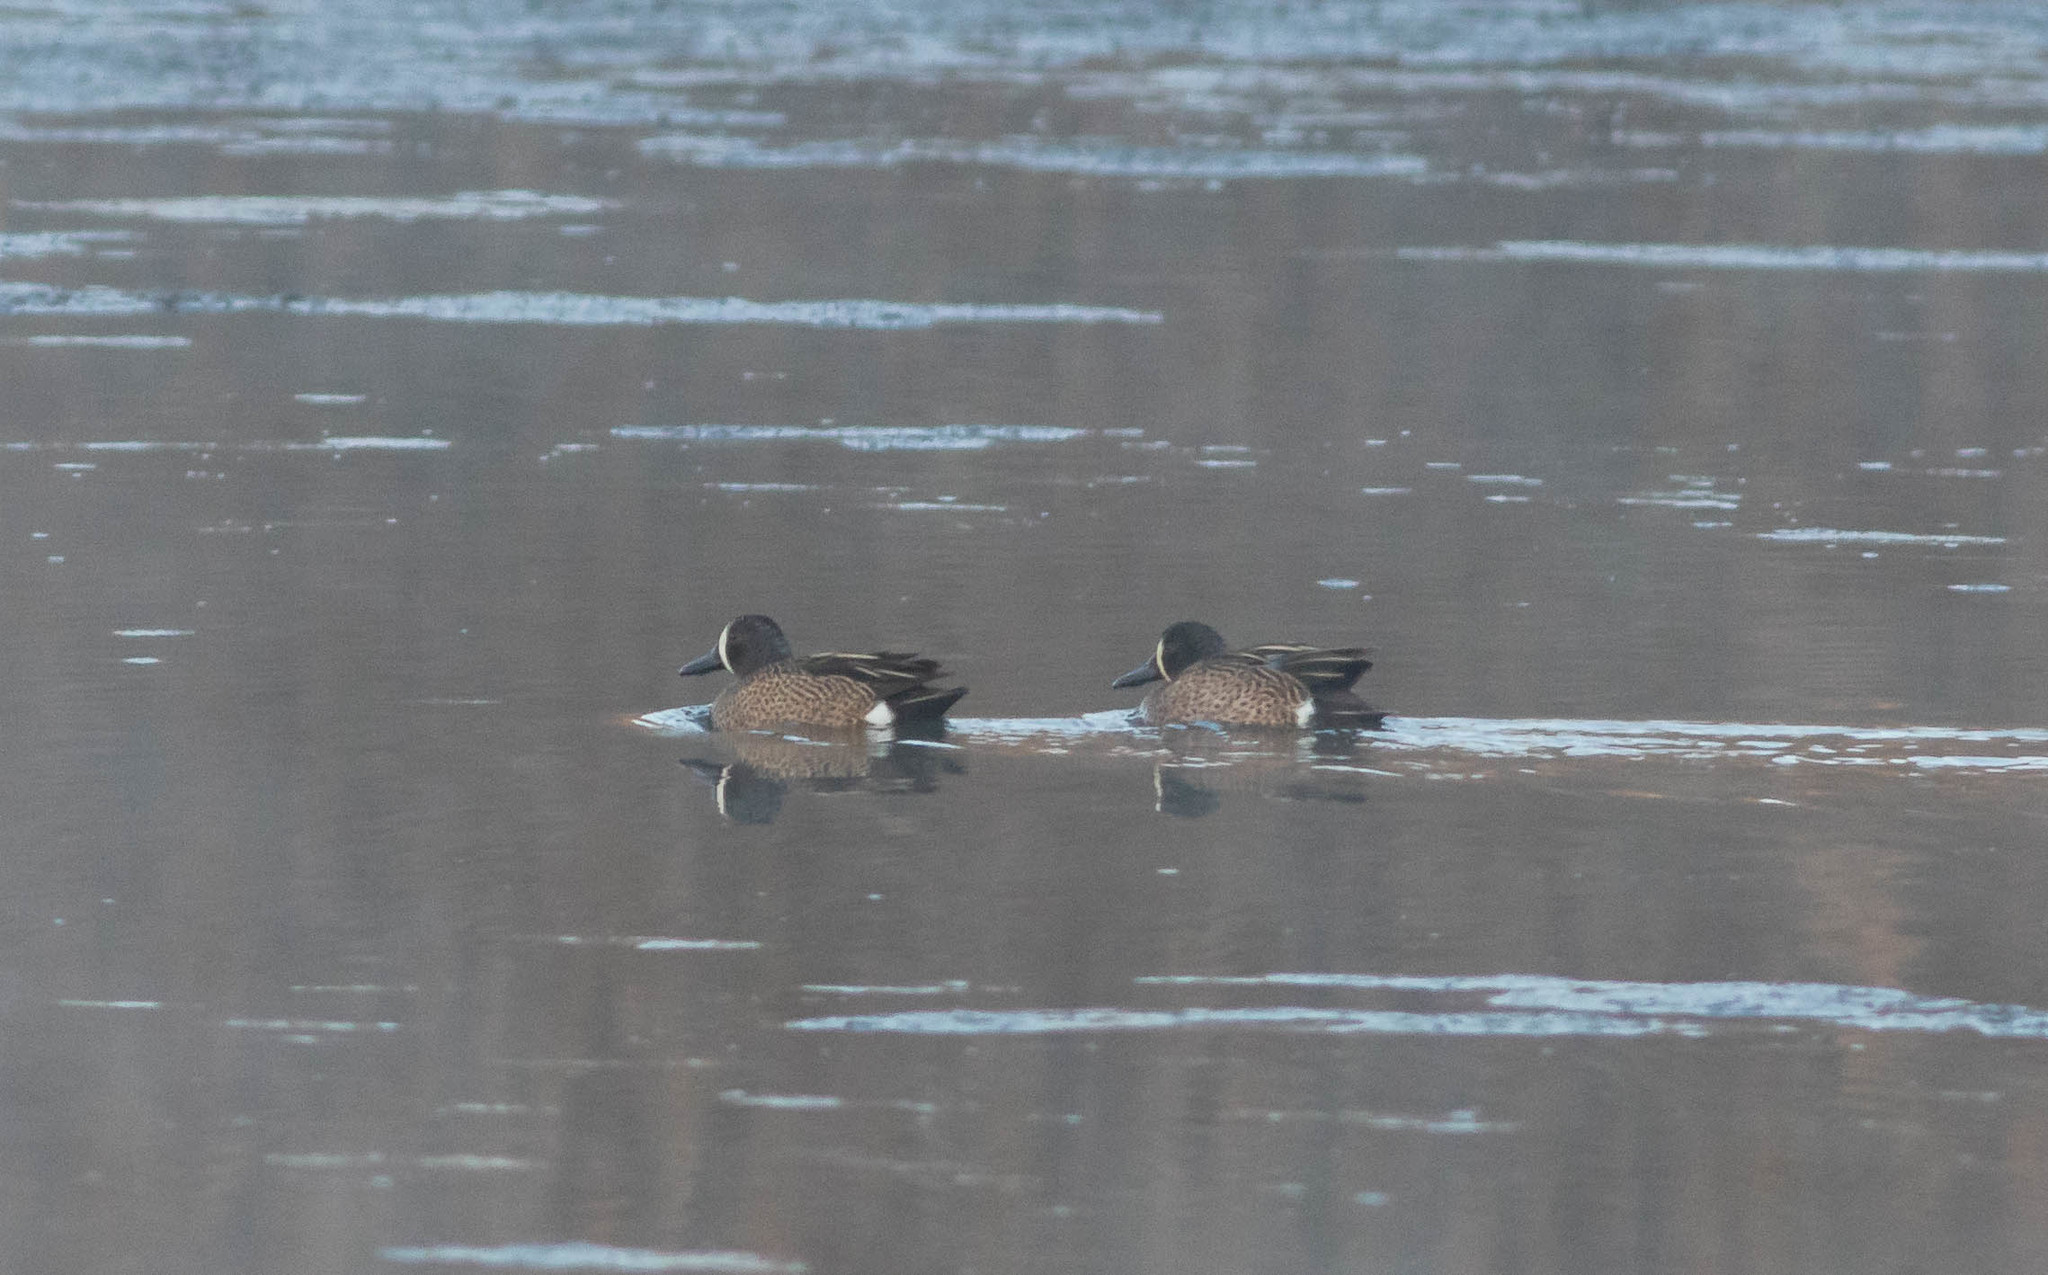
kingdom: Animalia
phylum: Chordata
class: Aves
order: Anseriformes
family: Anatidae
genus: Spatula
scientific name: Spatula discors
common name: Blue-winged teal
